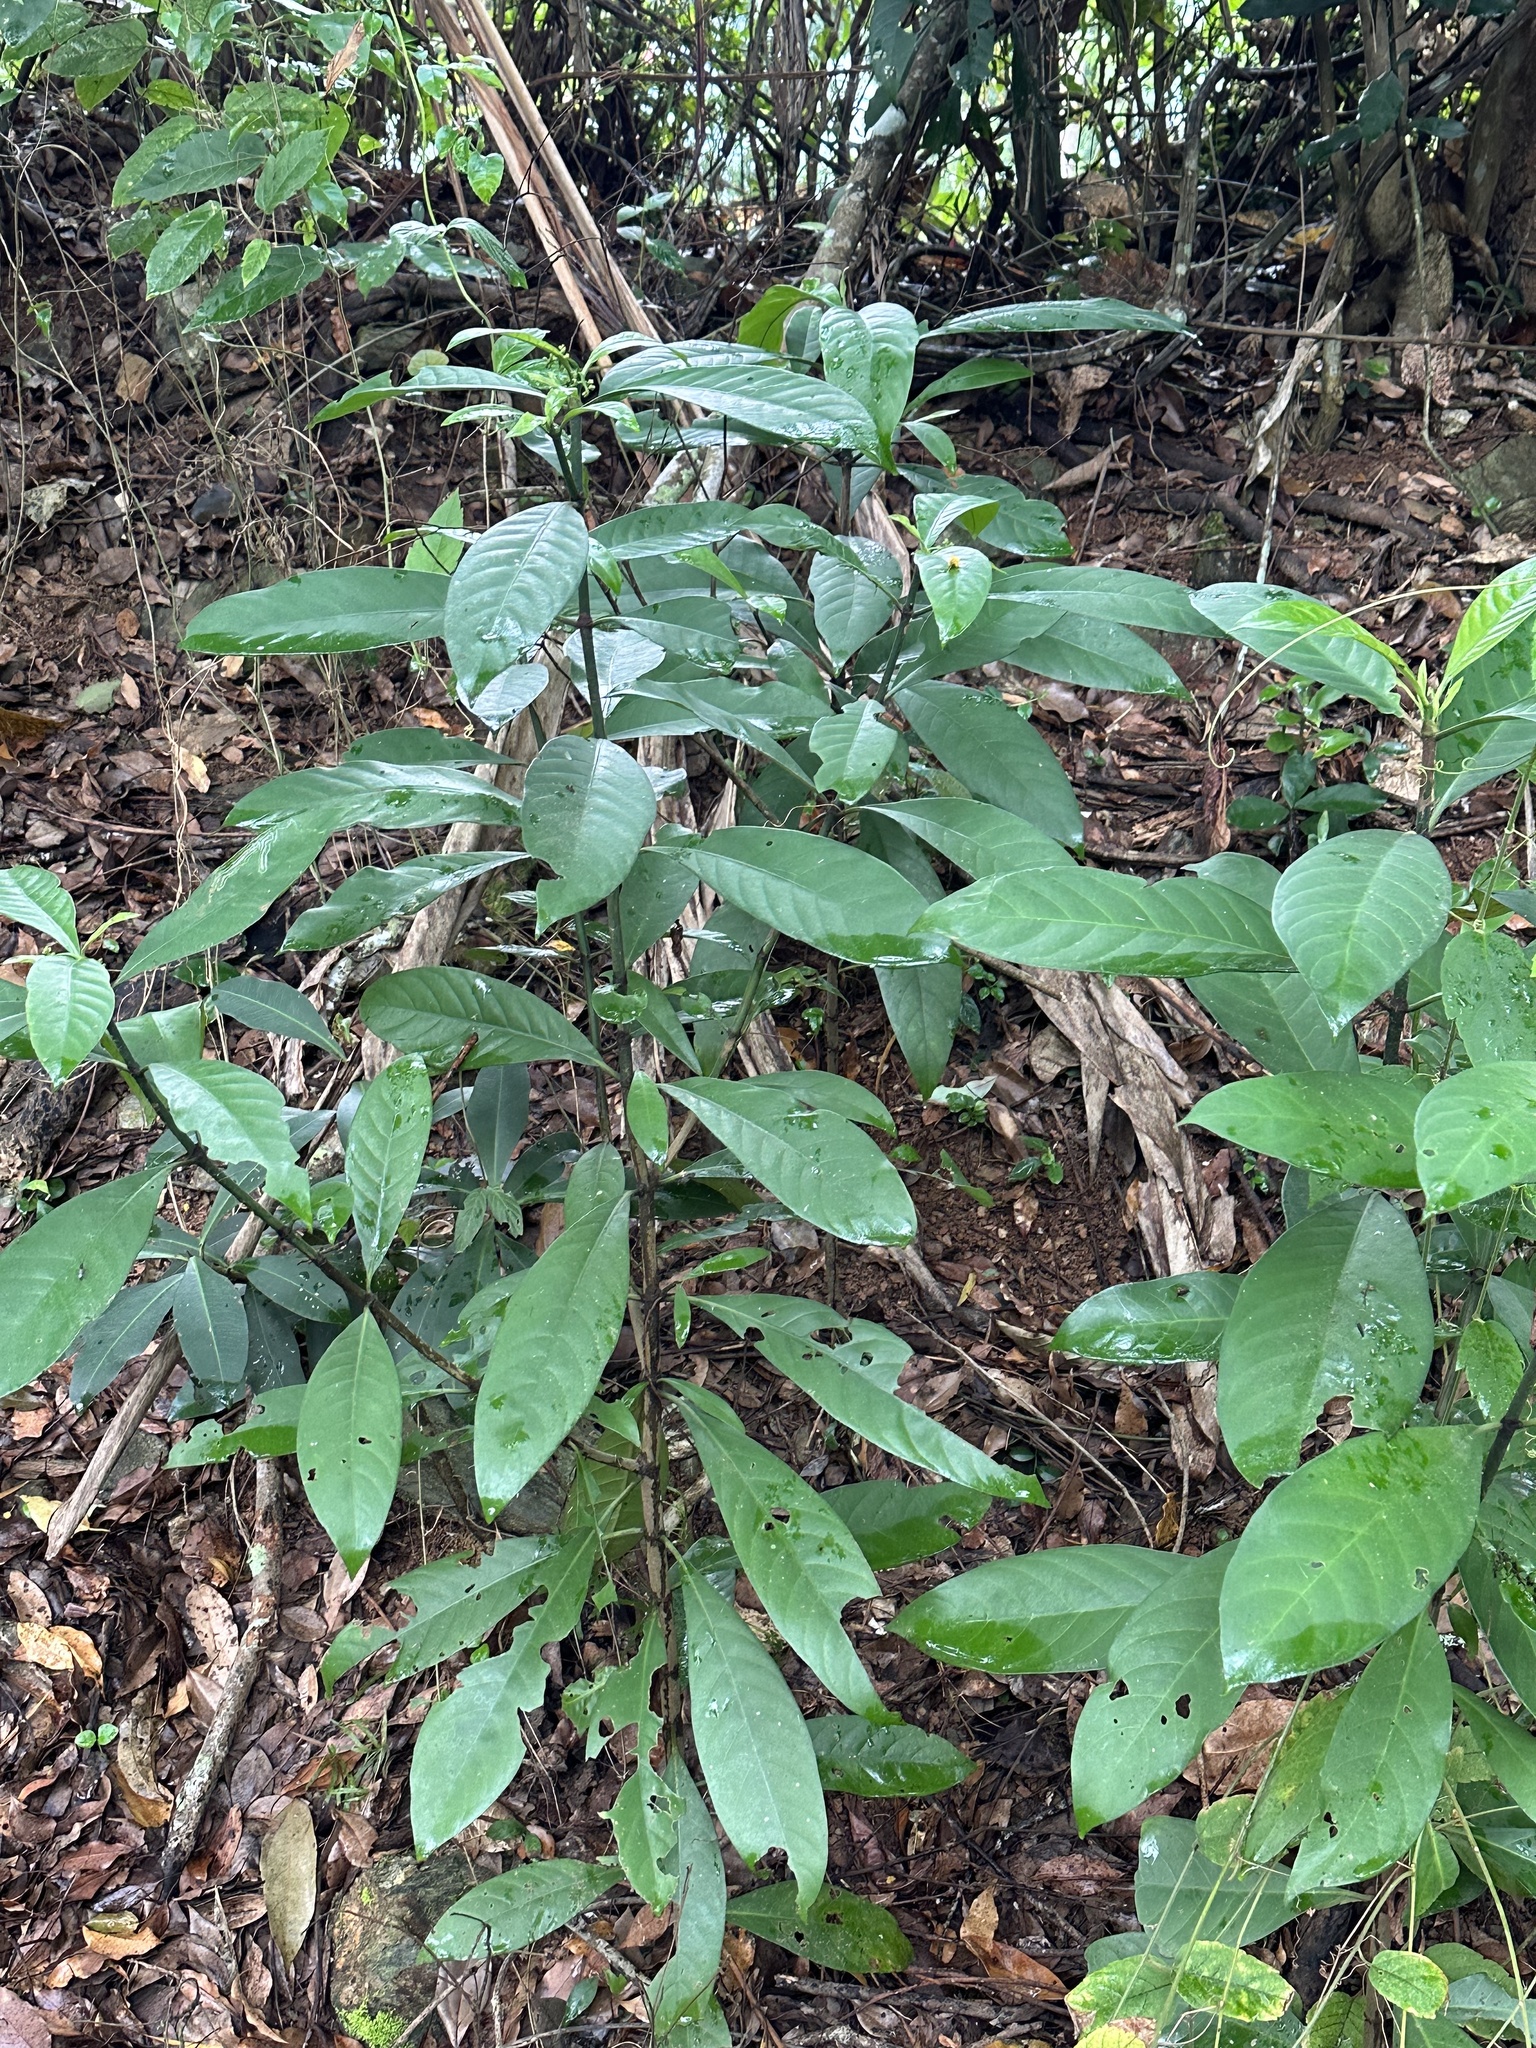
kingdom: Plantae
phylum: Tracheophyta
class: Magnoliopsida
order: Gentianales
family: Rubiaceae
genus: Psychotria
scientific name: Psychotria asiatica
